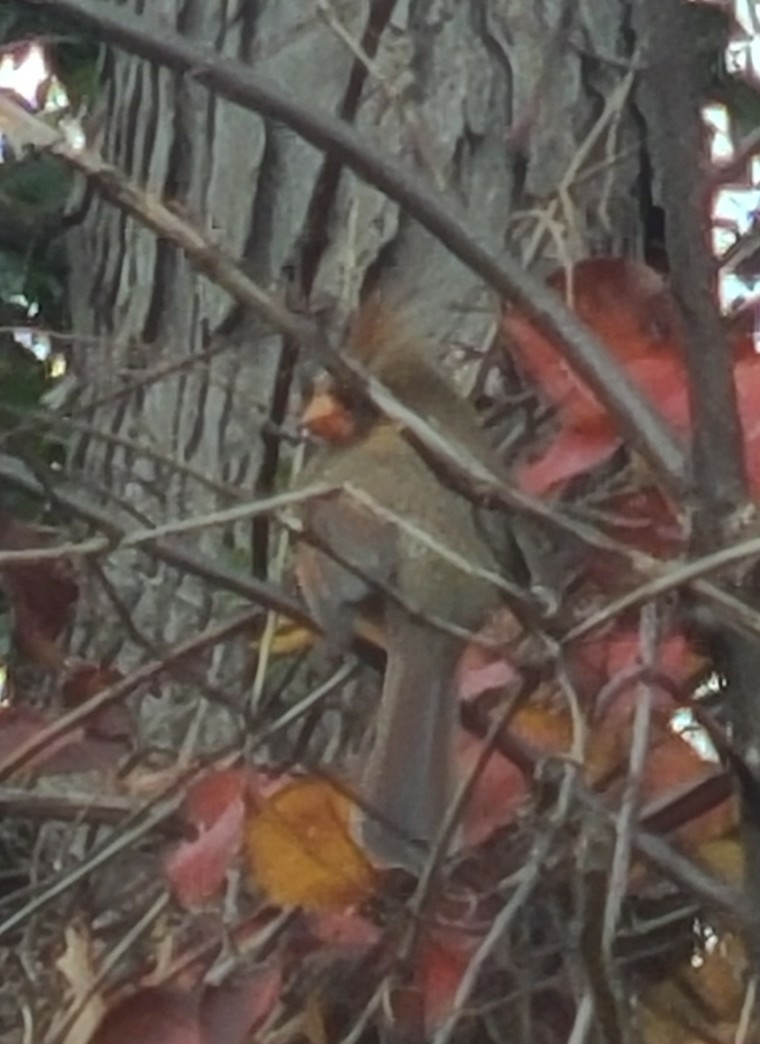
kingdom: Animalia
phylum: Chordata
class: Aves
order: Passeriformes
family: Cardinalidae
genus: Cardinalis
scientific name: Cardinalis cardinalis
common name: Northern cardinal
